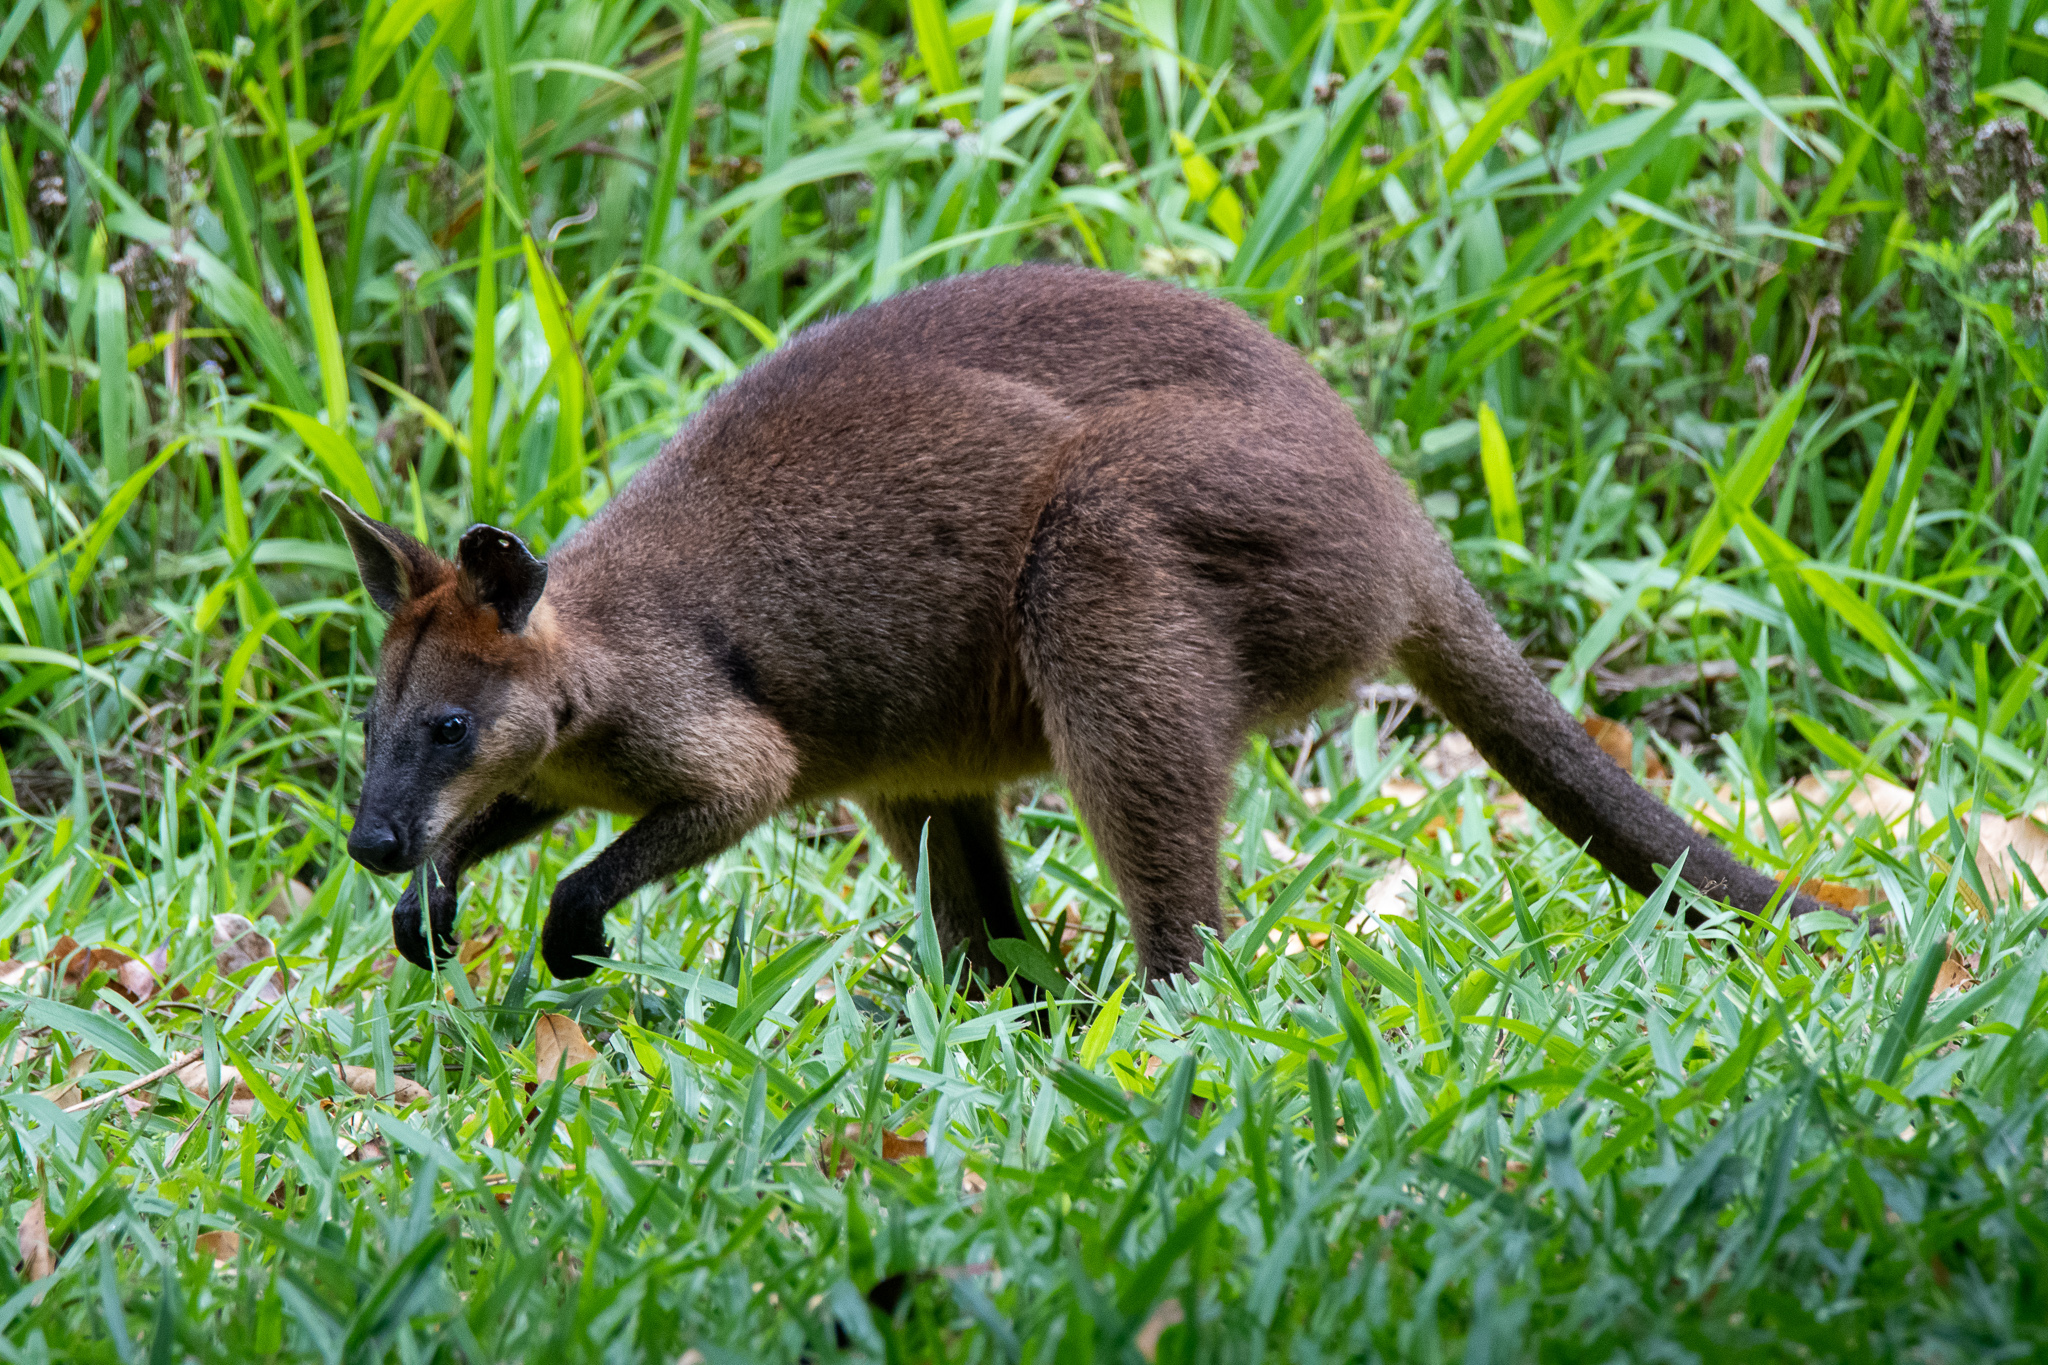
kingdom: Animalia
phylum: Chordata
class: Mammalia
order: Diprotodontia
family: Macropodidae
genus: Wallabia
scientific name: Wallabia bicolor
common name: Swamp wallaby
